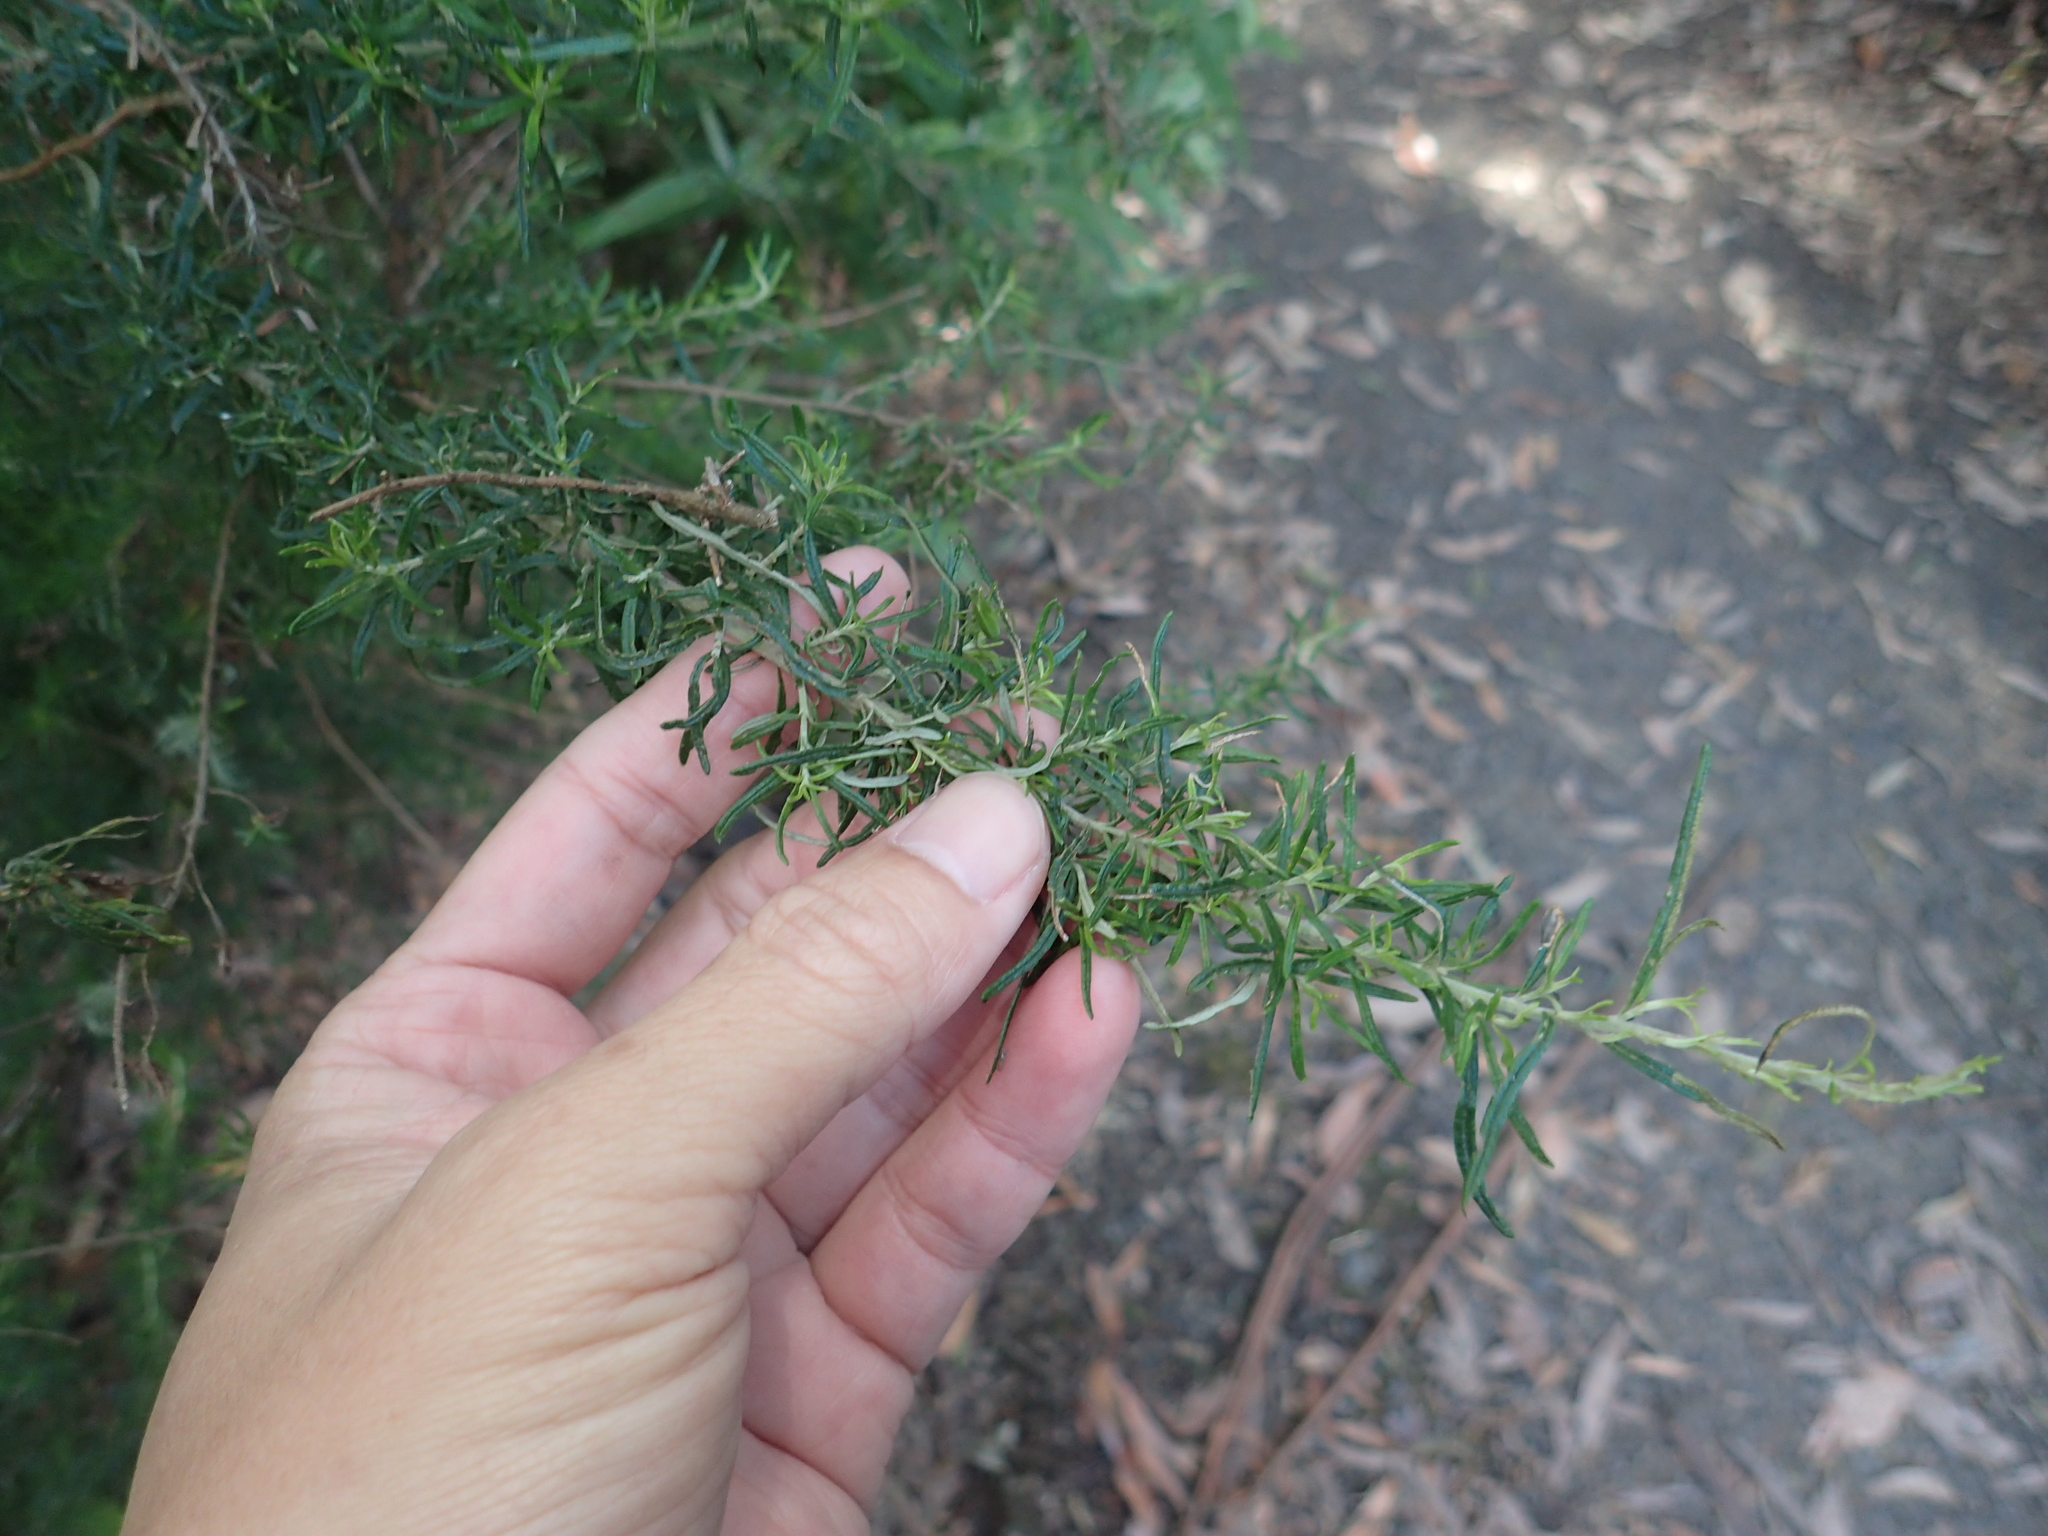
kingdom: Plantae
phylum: Tracheophyta
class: Magnoliopsida
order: Asterales
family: Asteraceae
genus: Cassinia
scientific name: Cassinia aculeata
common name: Australian tauhinu
